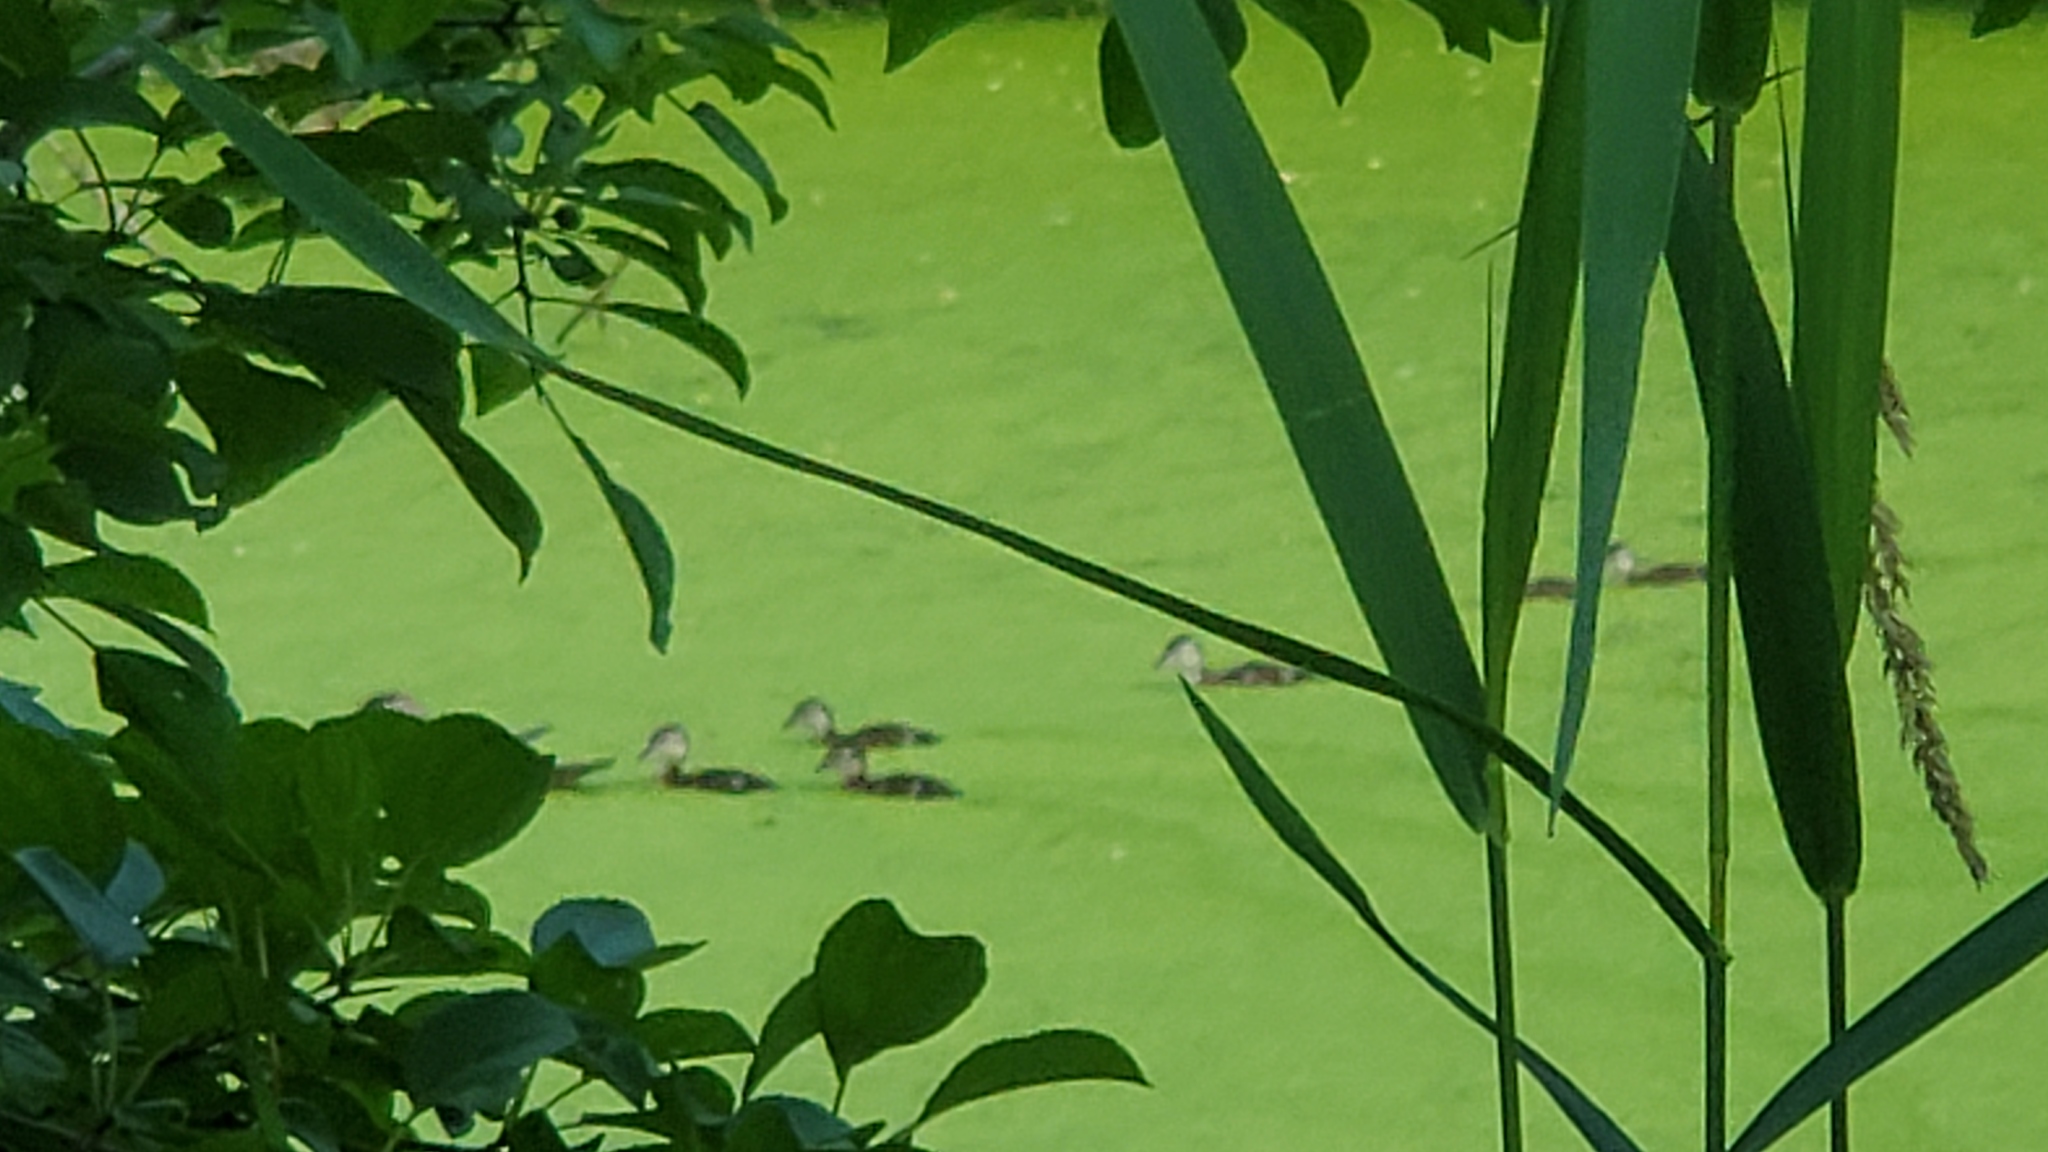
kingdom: Animalia
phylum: Chordata
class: Aves
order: Anseriformes
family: Anatidae
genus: Aix
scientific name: Aix sponsa
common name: Wood duck
